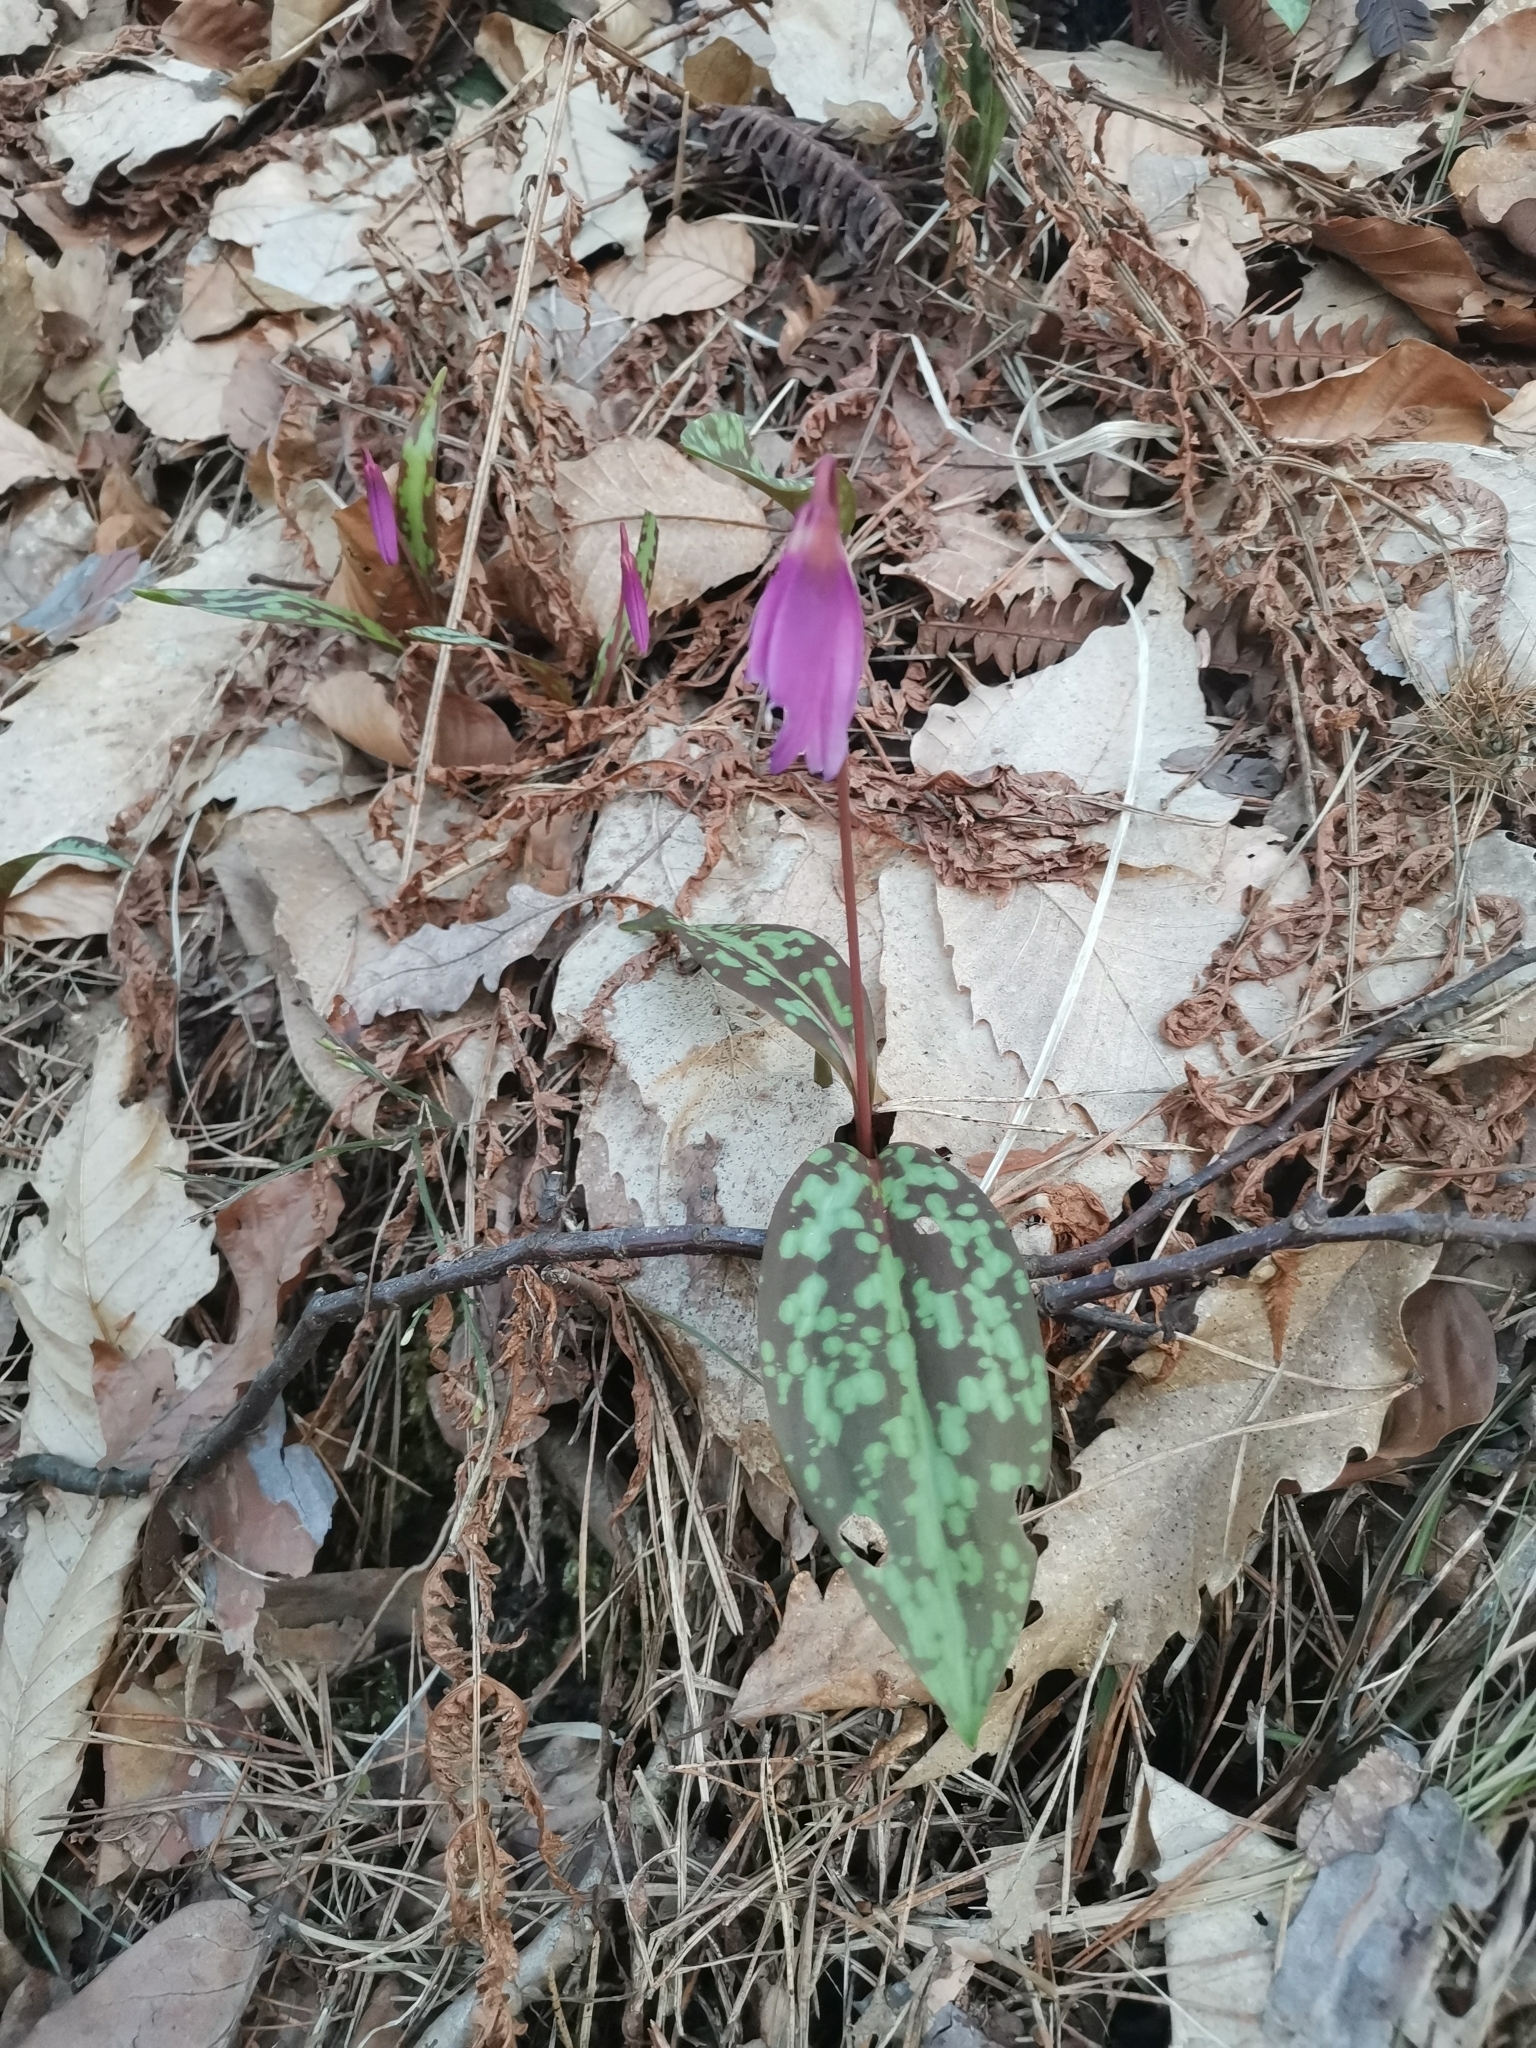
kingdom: Plantae
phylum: Tracheophyta
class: Liliopsida
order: Liliales
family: Liliaceae
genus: Erythronium
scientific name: Erythronium dens-canis
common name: Dog's-tooth-violet
